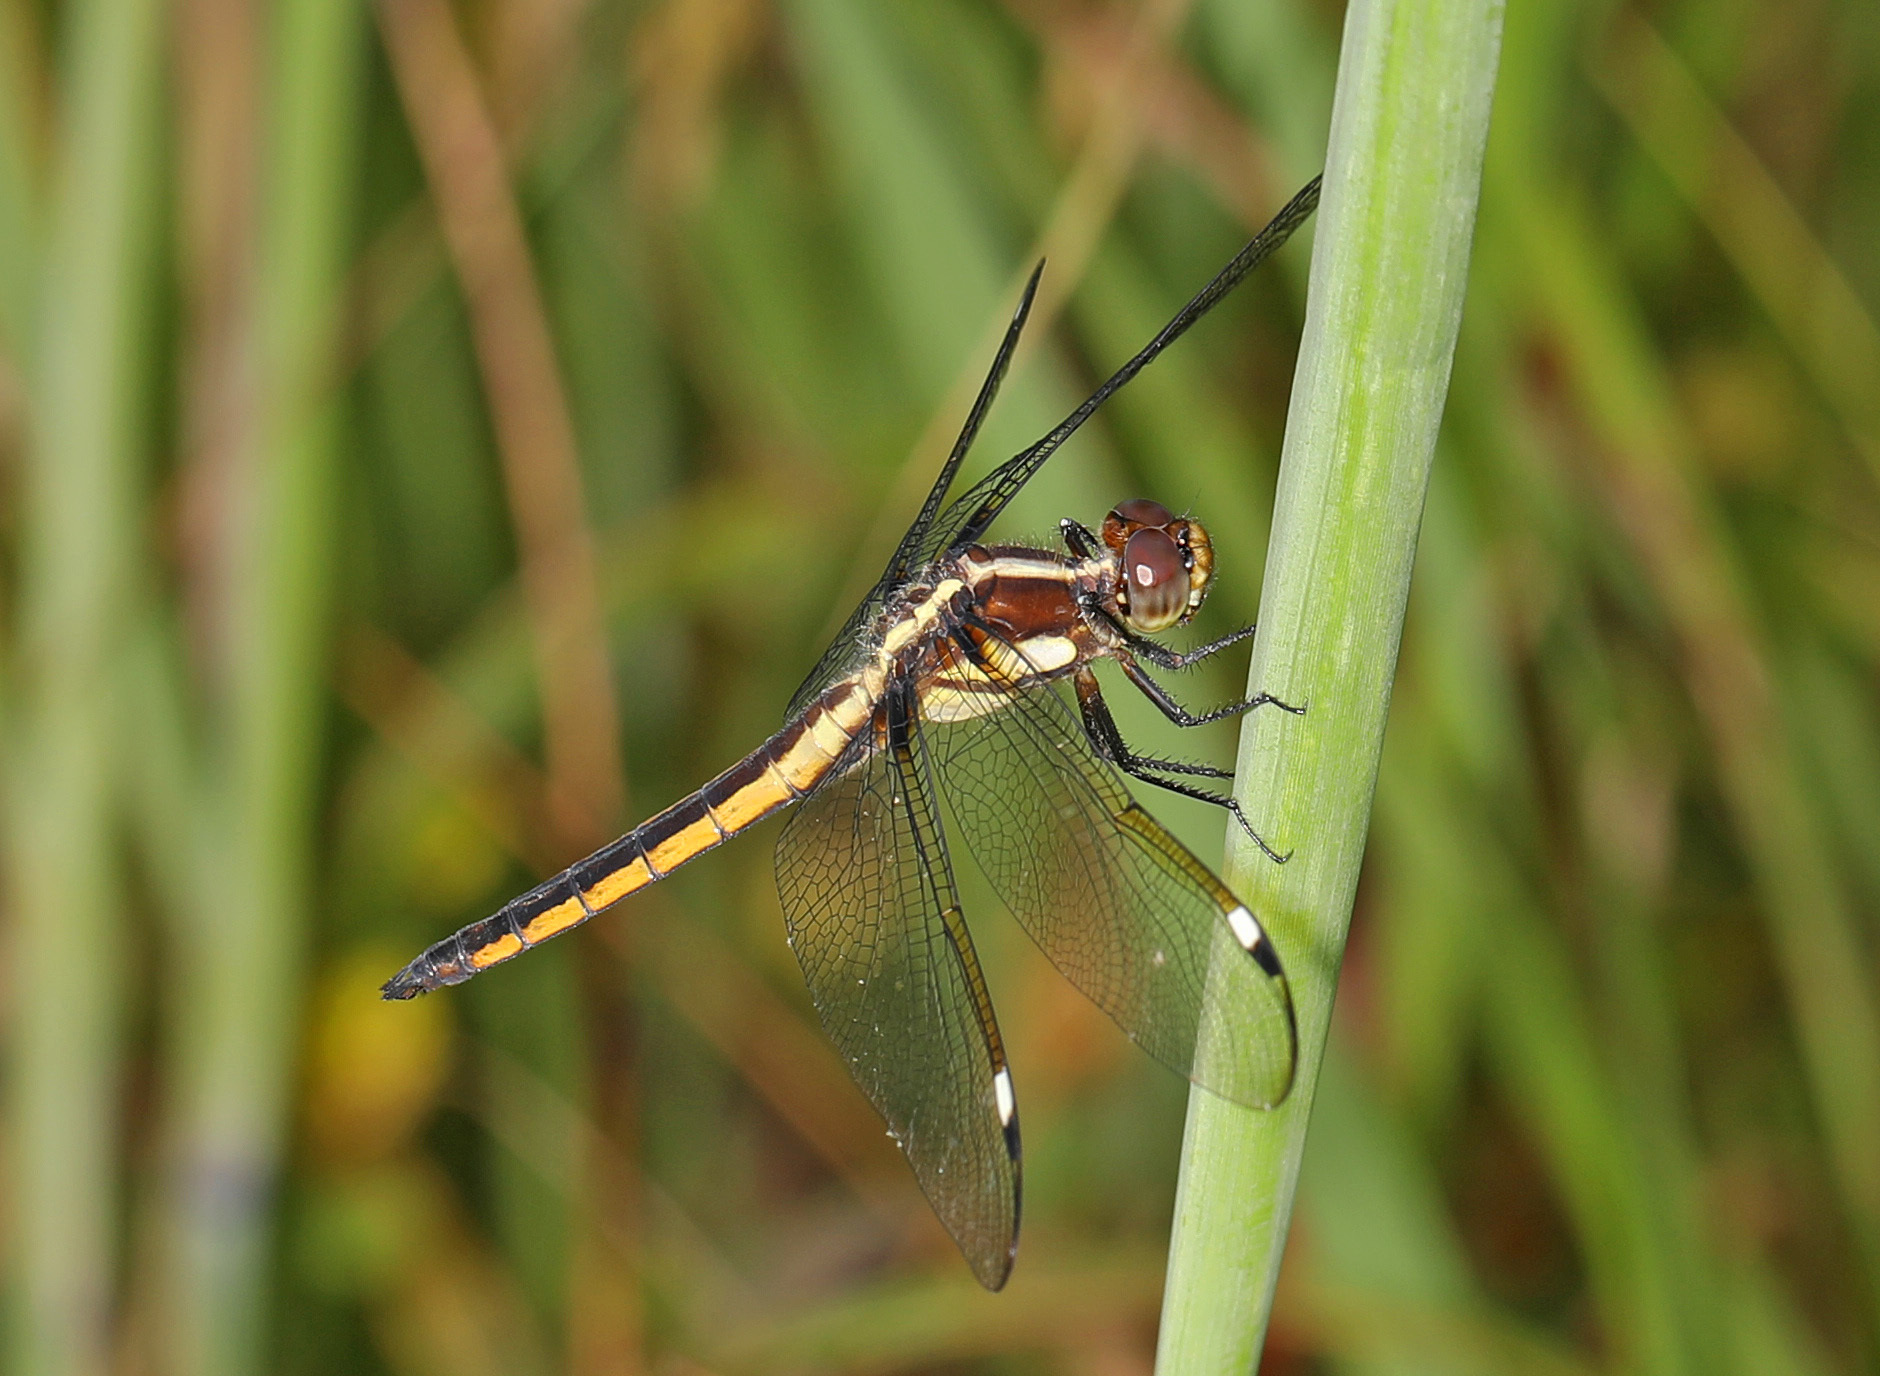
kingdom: Animalia
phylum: Arthropoda
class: Insecta
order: Odonata
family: Libellulidae
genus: Libellula
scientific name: Libellula cyanea
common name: Spangled skimmer
